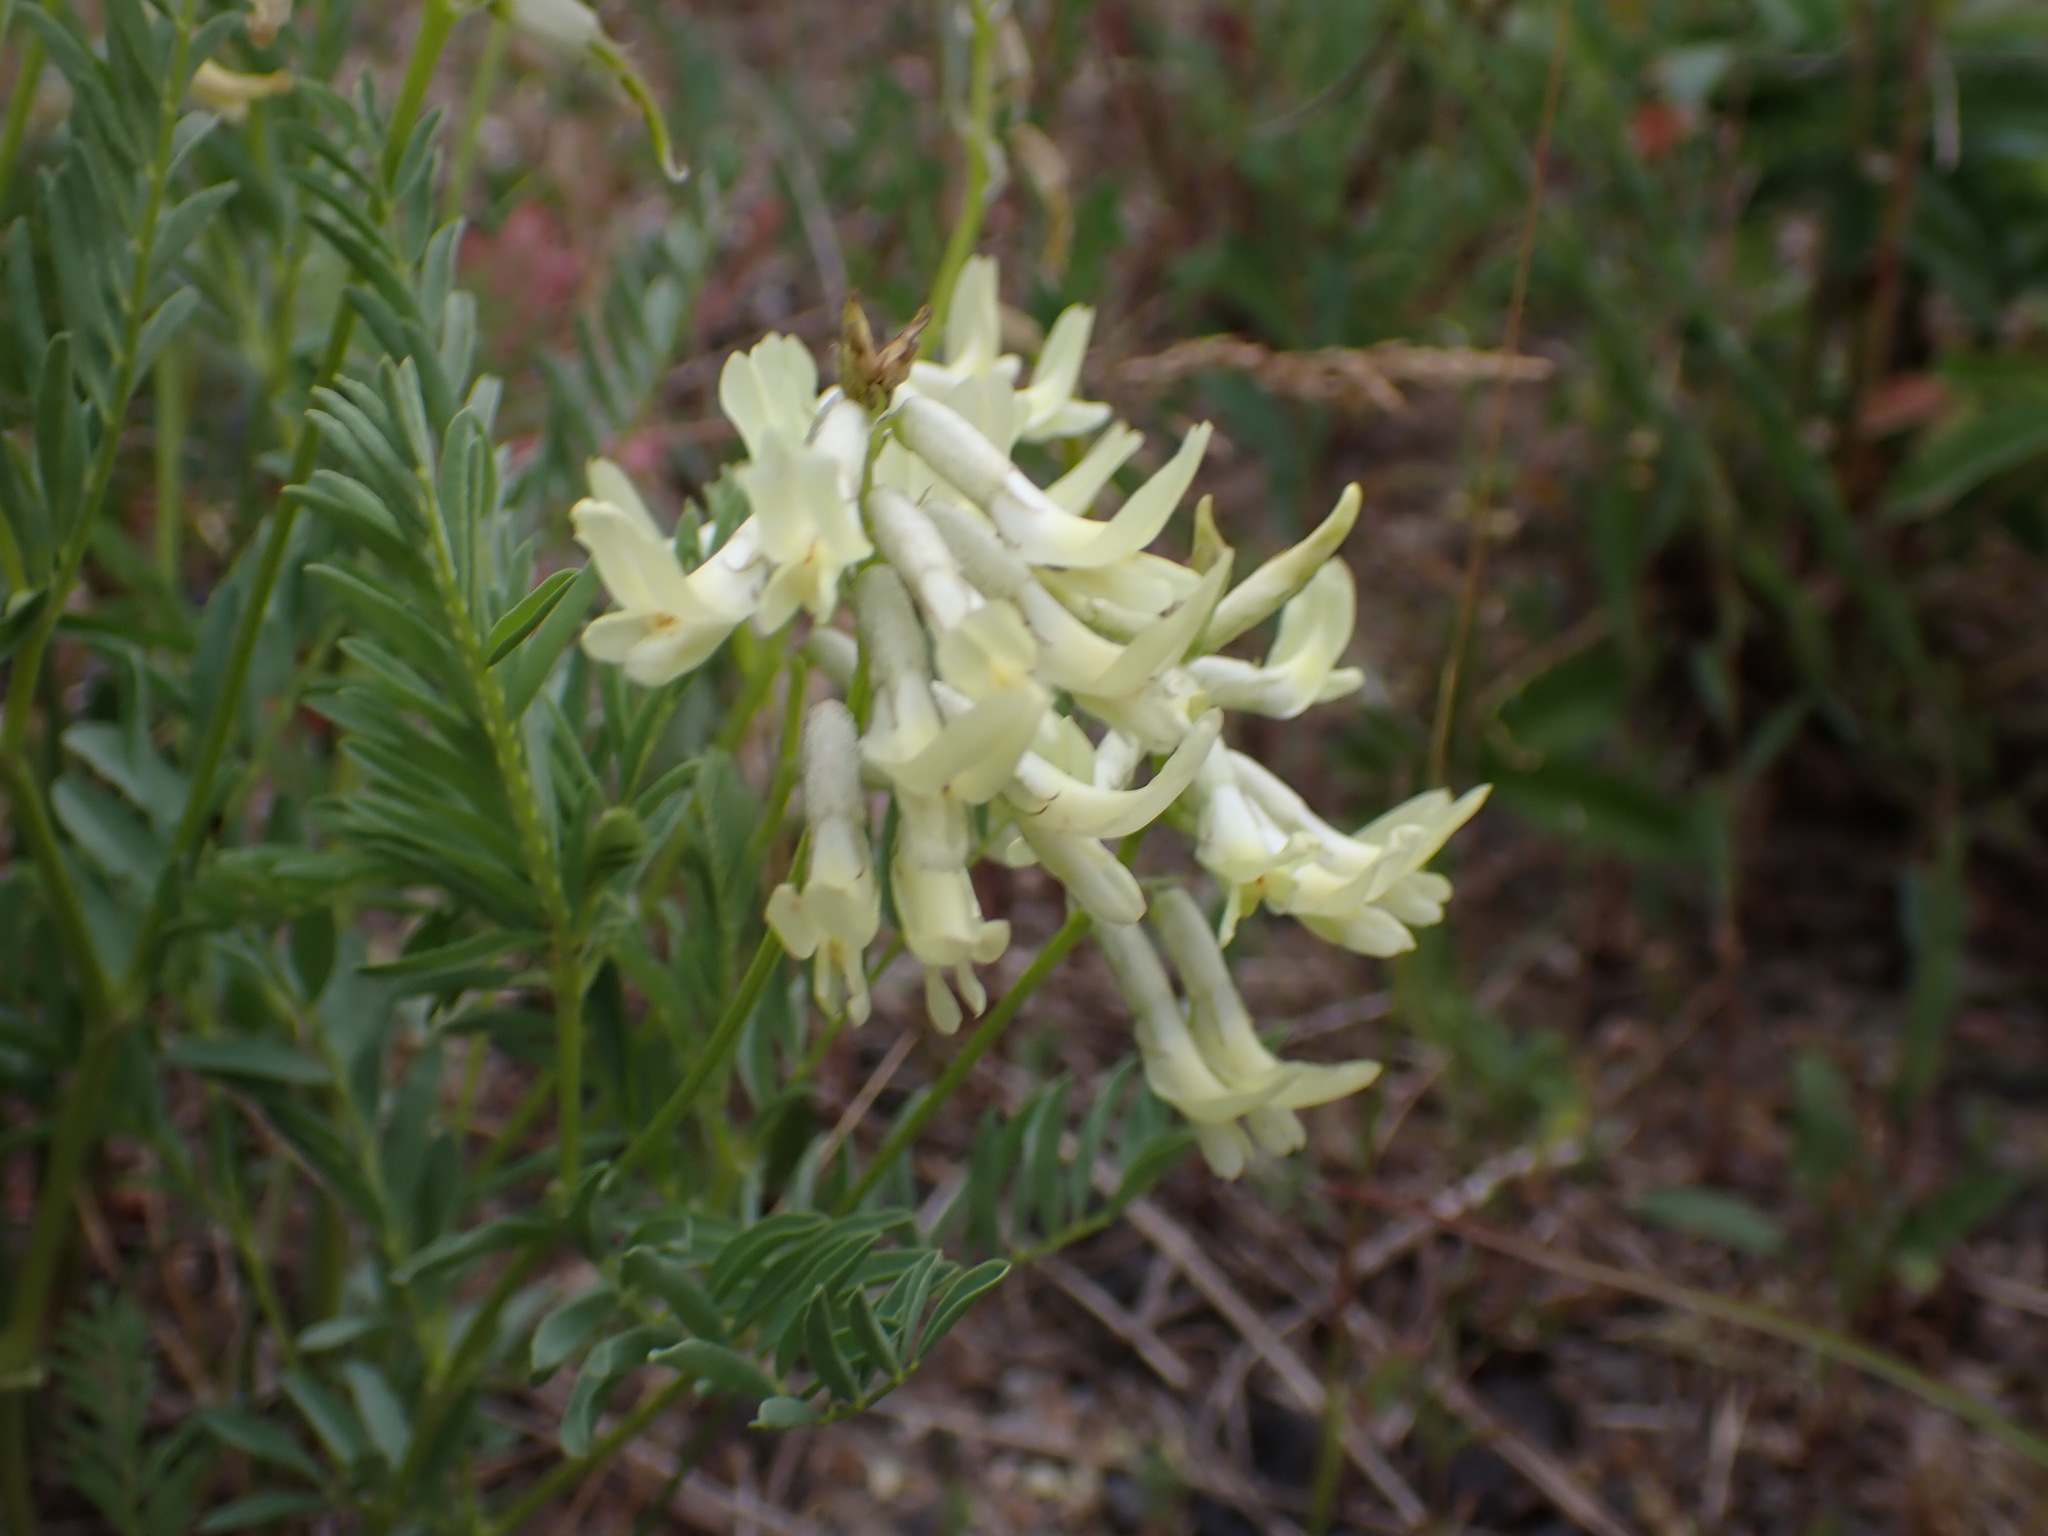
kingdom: Plantae
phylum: Tracheophyta
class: Magnoliopsida
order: Fabales
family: Fabaceae
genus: Astragalus
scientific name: Astragalus scopulorum
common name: Rocky mountain milk-vetch
